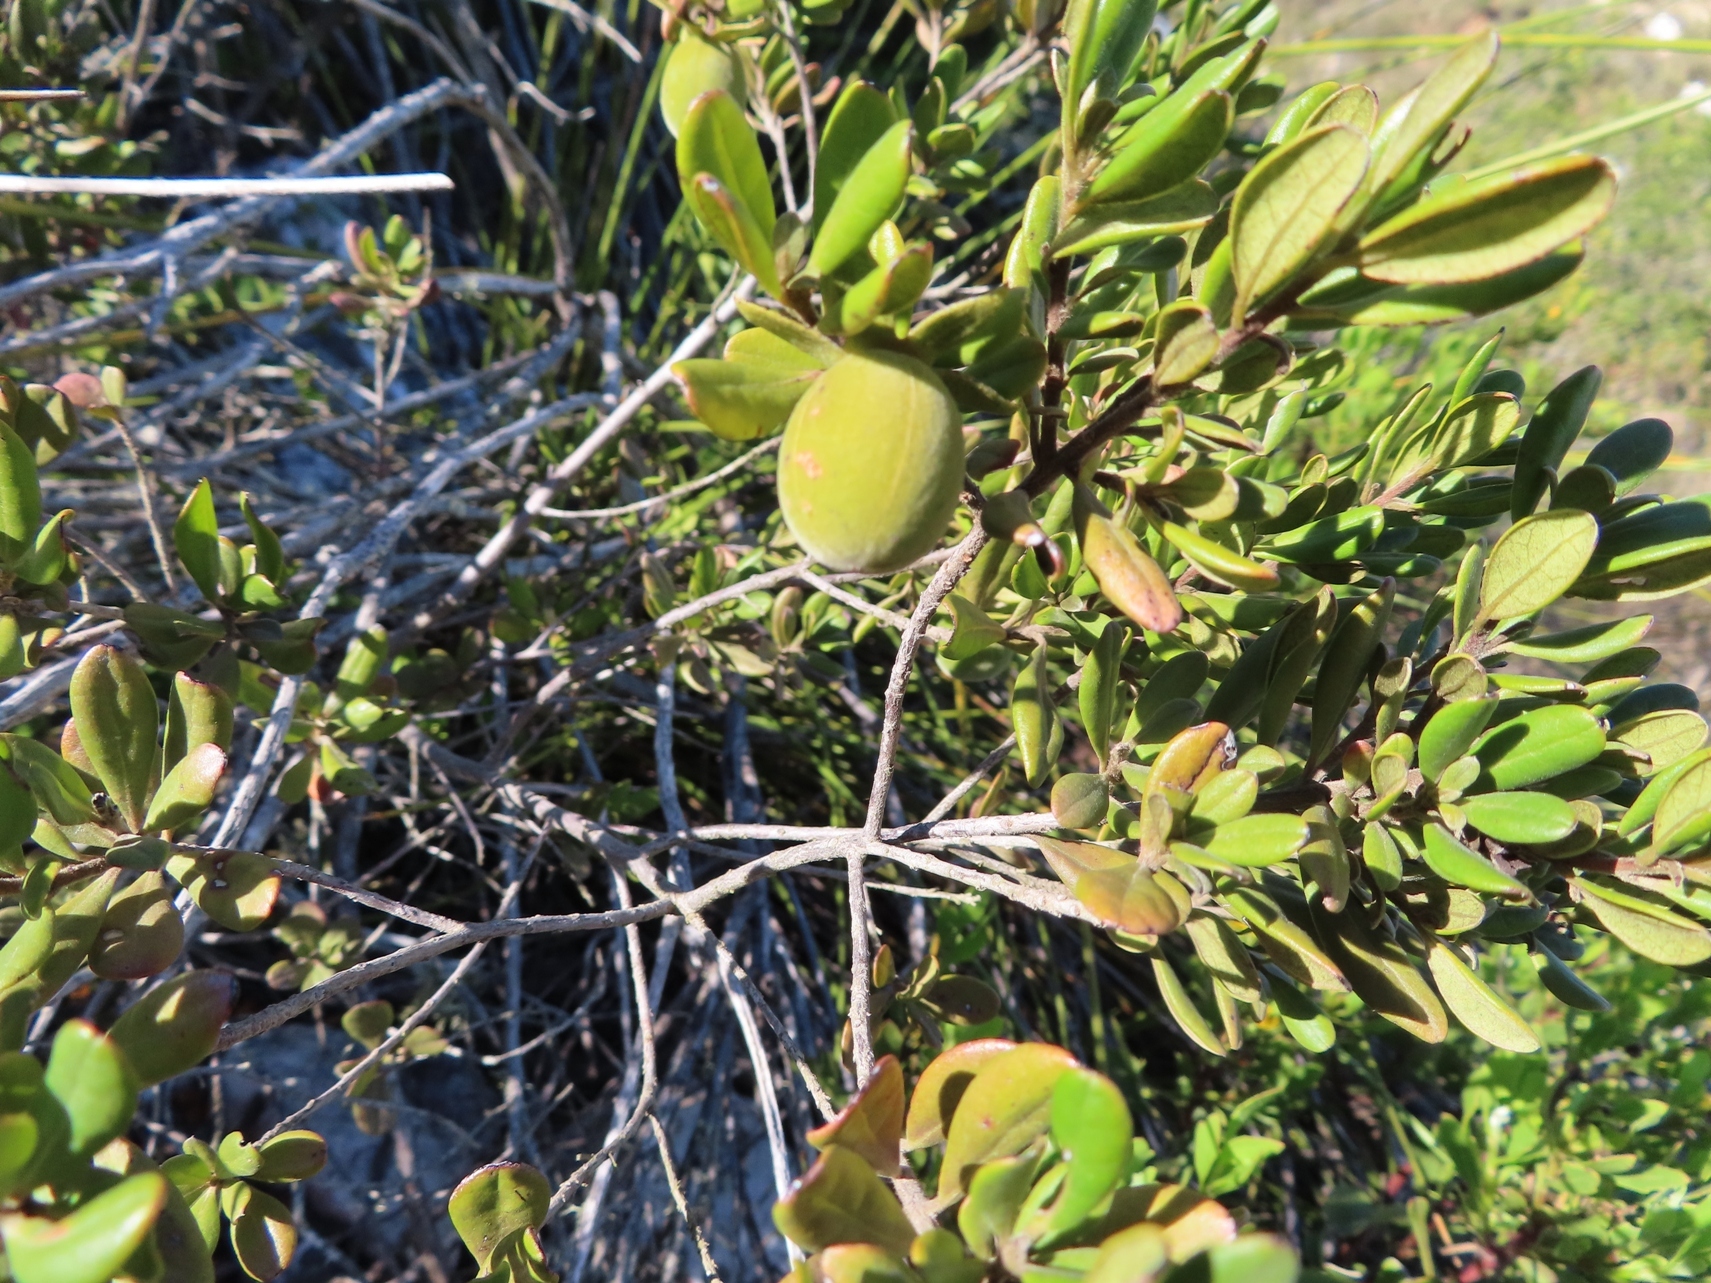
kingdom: Plantae
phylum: Tracheophyta
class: Magnoliopsida
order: Ericales
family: Ebenaceae
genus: Diospyros
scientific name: Diospyros dichrophylla
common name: Common star-apple
